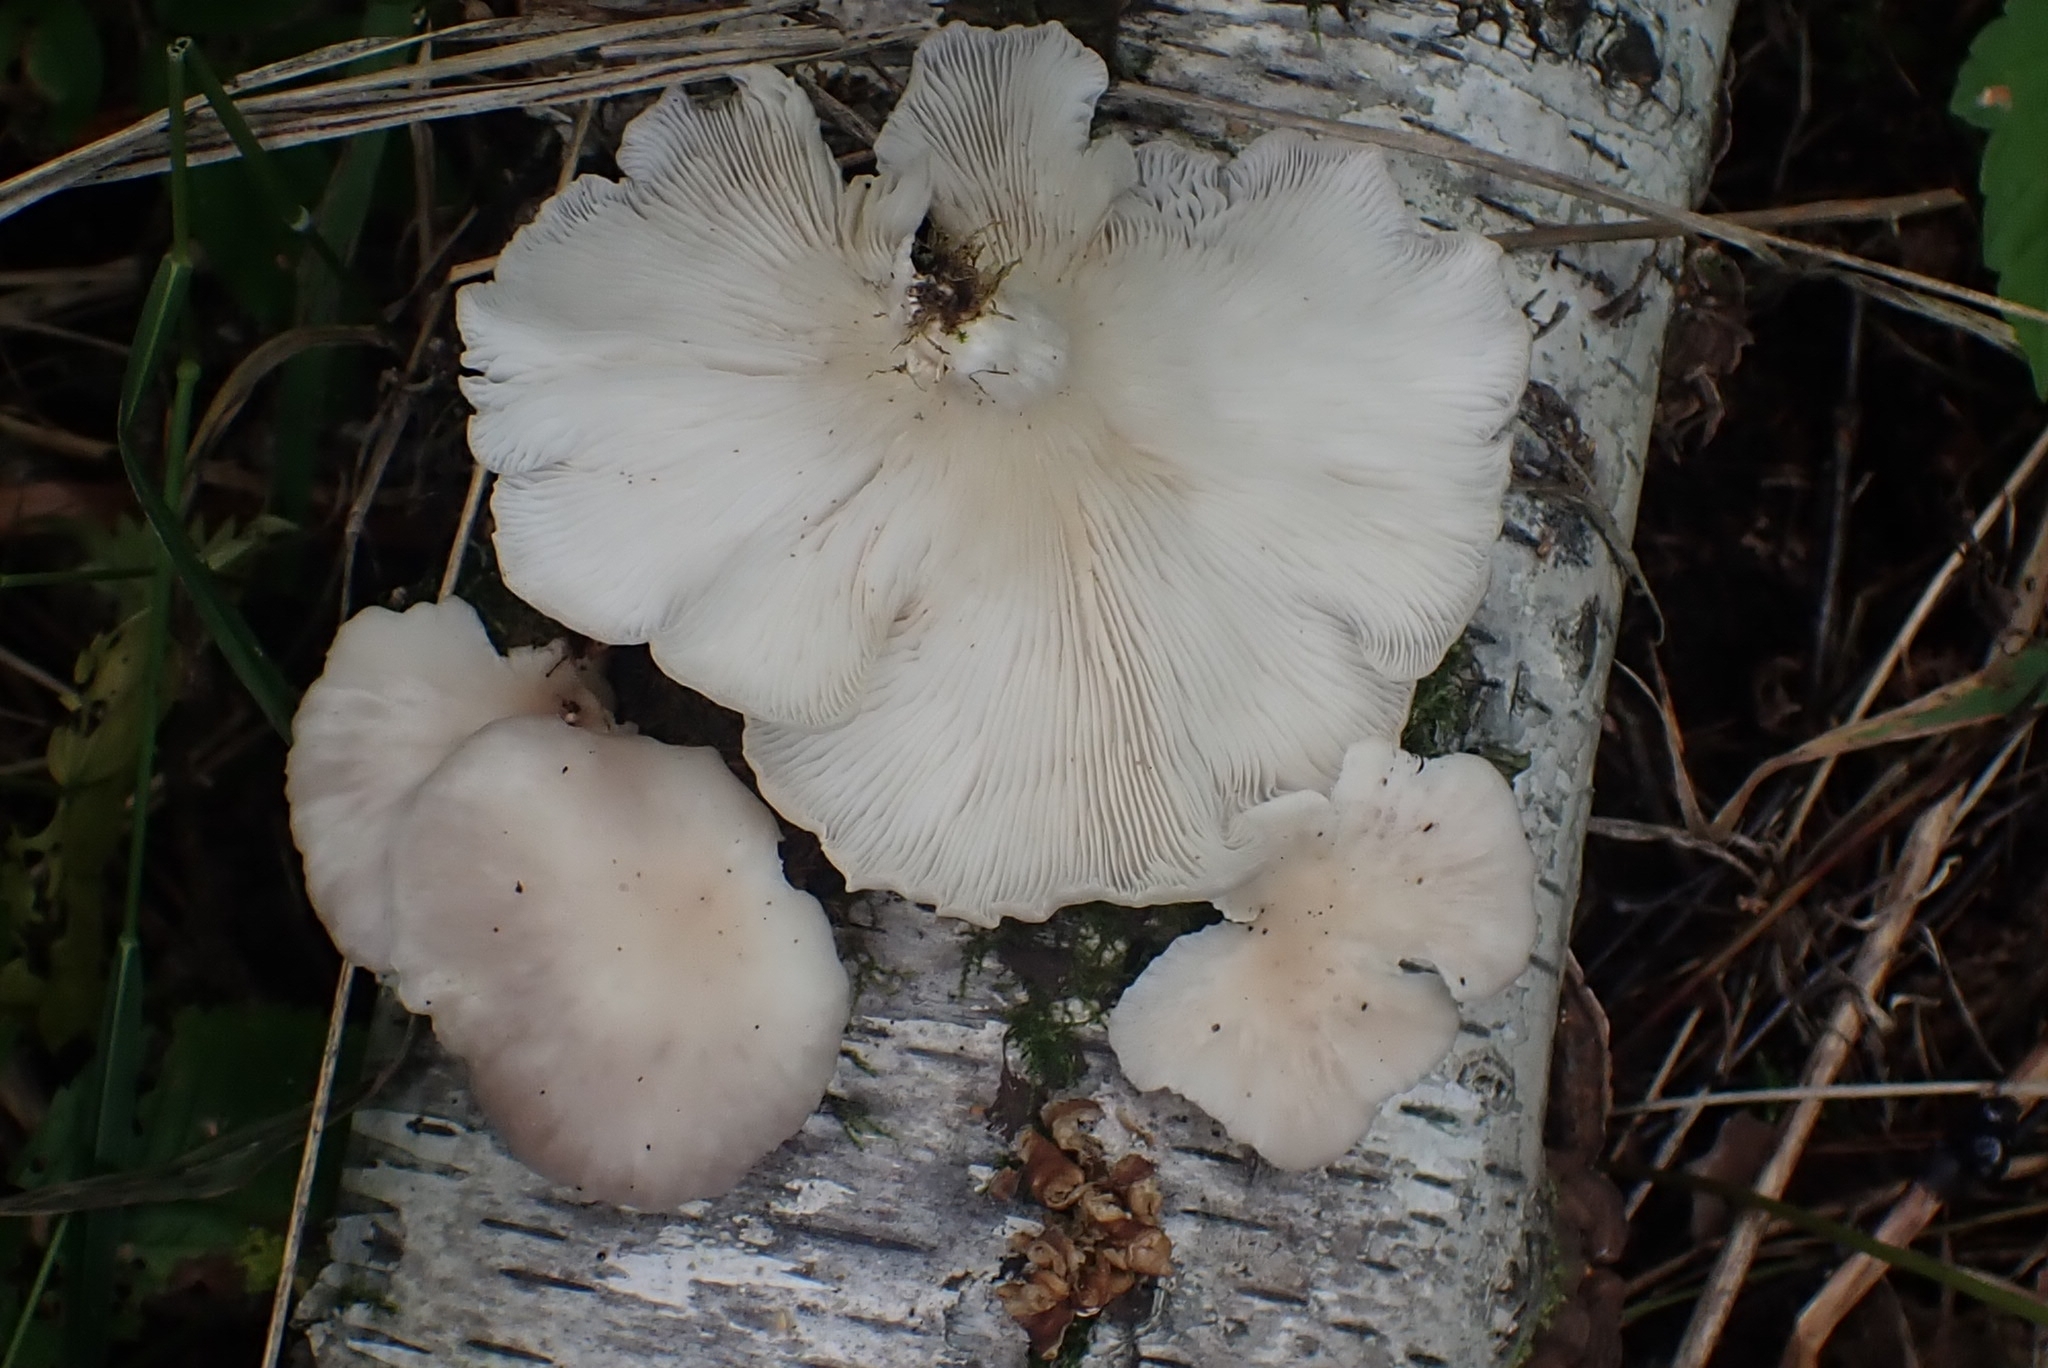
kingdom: Fungi
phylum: Basidiomycota
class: Agaricomycetes
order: Agaricales
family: Pleurotaceae
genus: Pleurotus
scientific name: Pleurotus pulmonarius
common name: Pale oyster
